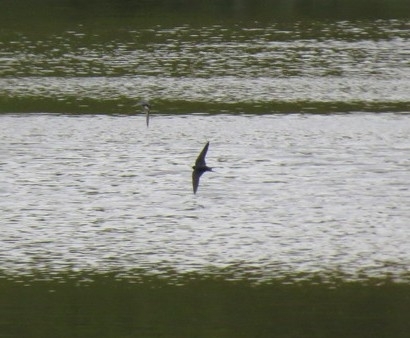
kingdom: Animalia
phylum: Chordata
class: Aves
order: Passeriformes
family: Hirundinidae
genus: Hirundo
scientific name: Hirundo rustica
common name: Barn swallow
